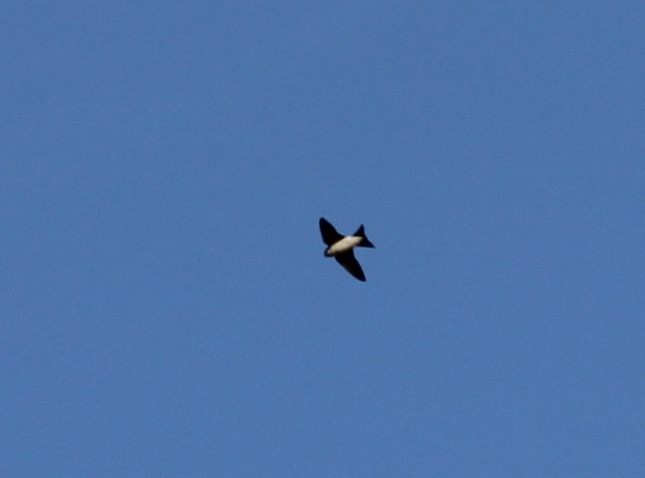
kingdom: Animalia
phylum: Chordata
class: Aves
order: Passeriformes
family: Hirundinidae
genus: Delichon
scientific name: Delichon urbicum
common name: Common house martin
